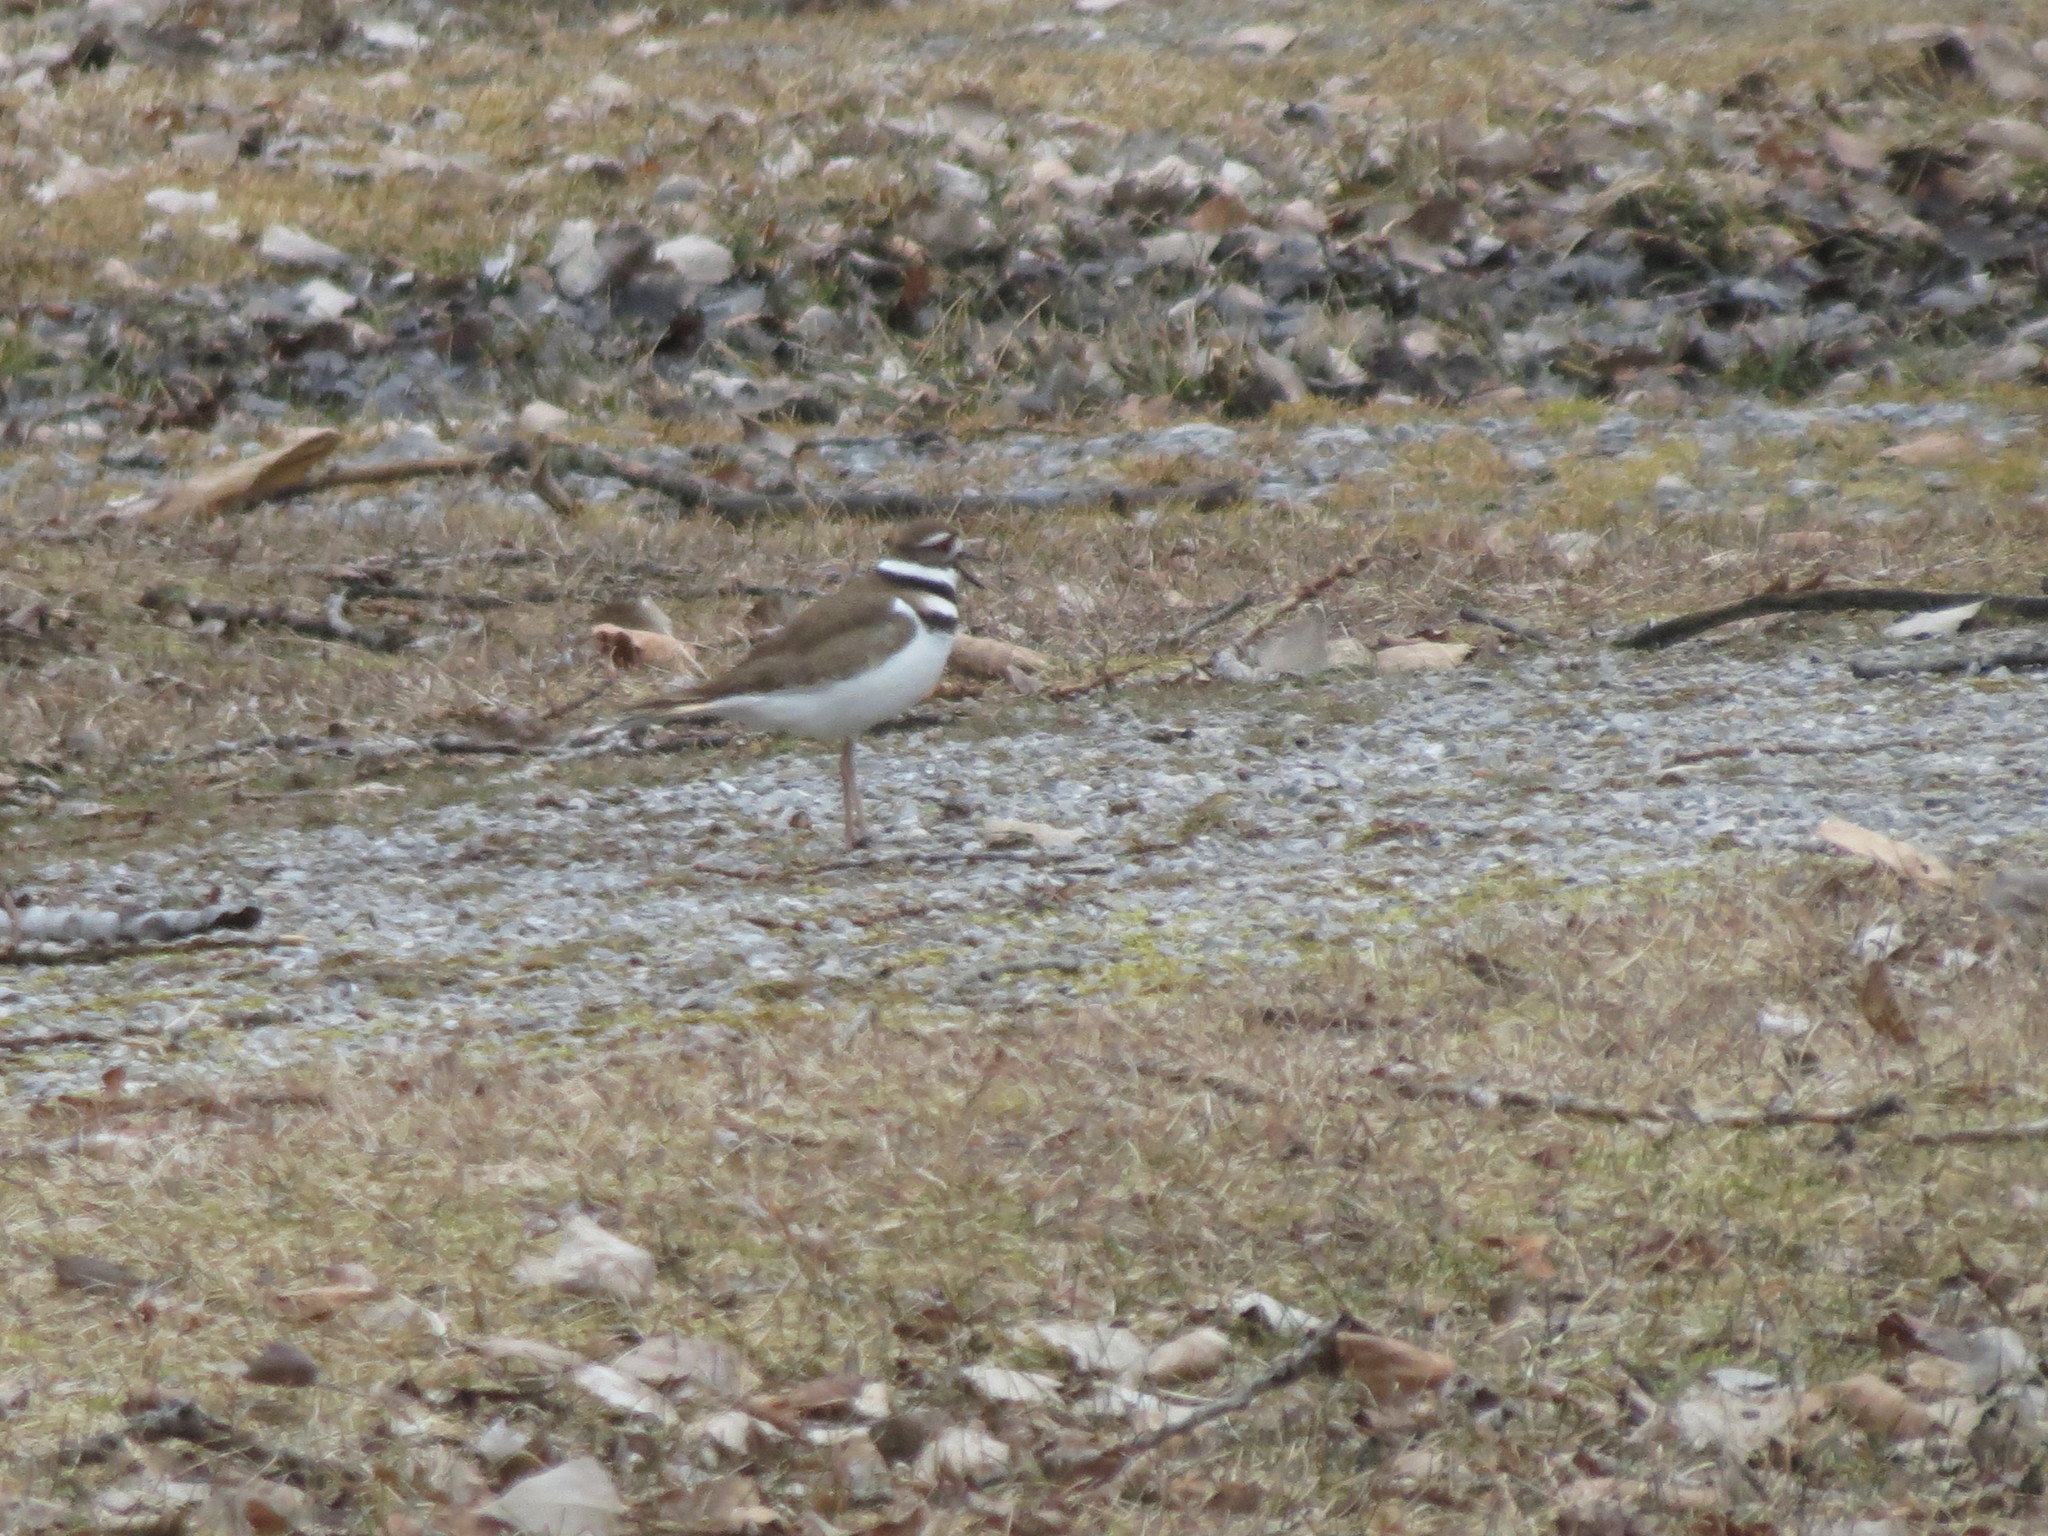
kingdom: Animalia
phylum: Chordata
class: Aves
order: Charadriiformes
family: Charadriidae
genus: Charadrius
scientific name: Charadrius vociferus
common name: Killdeer
